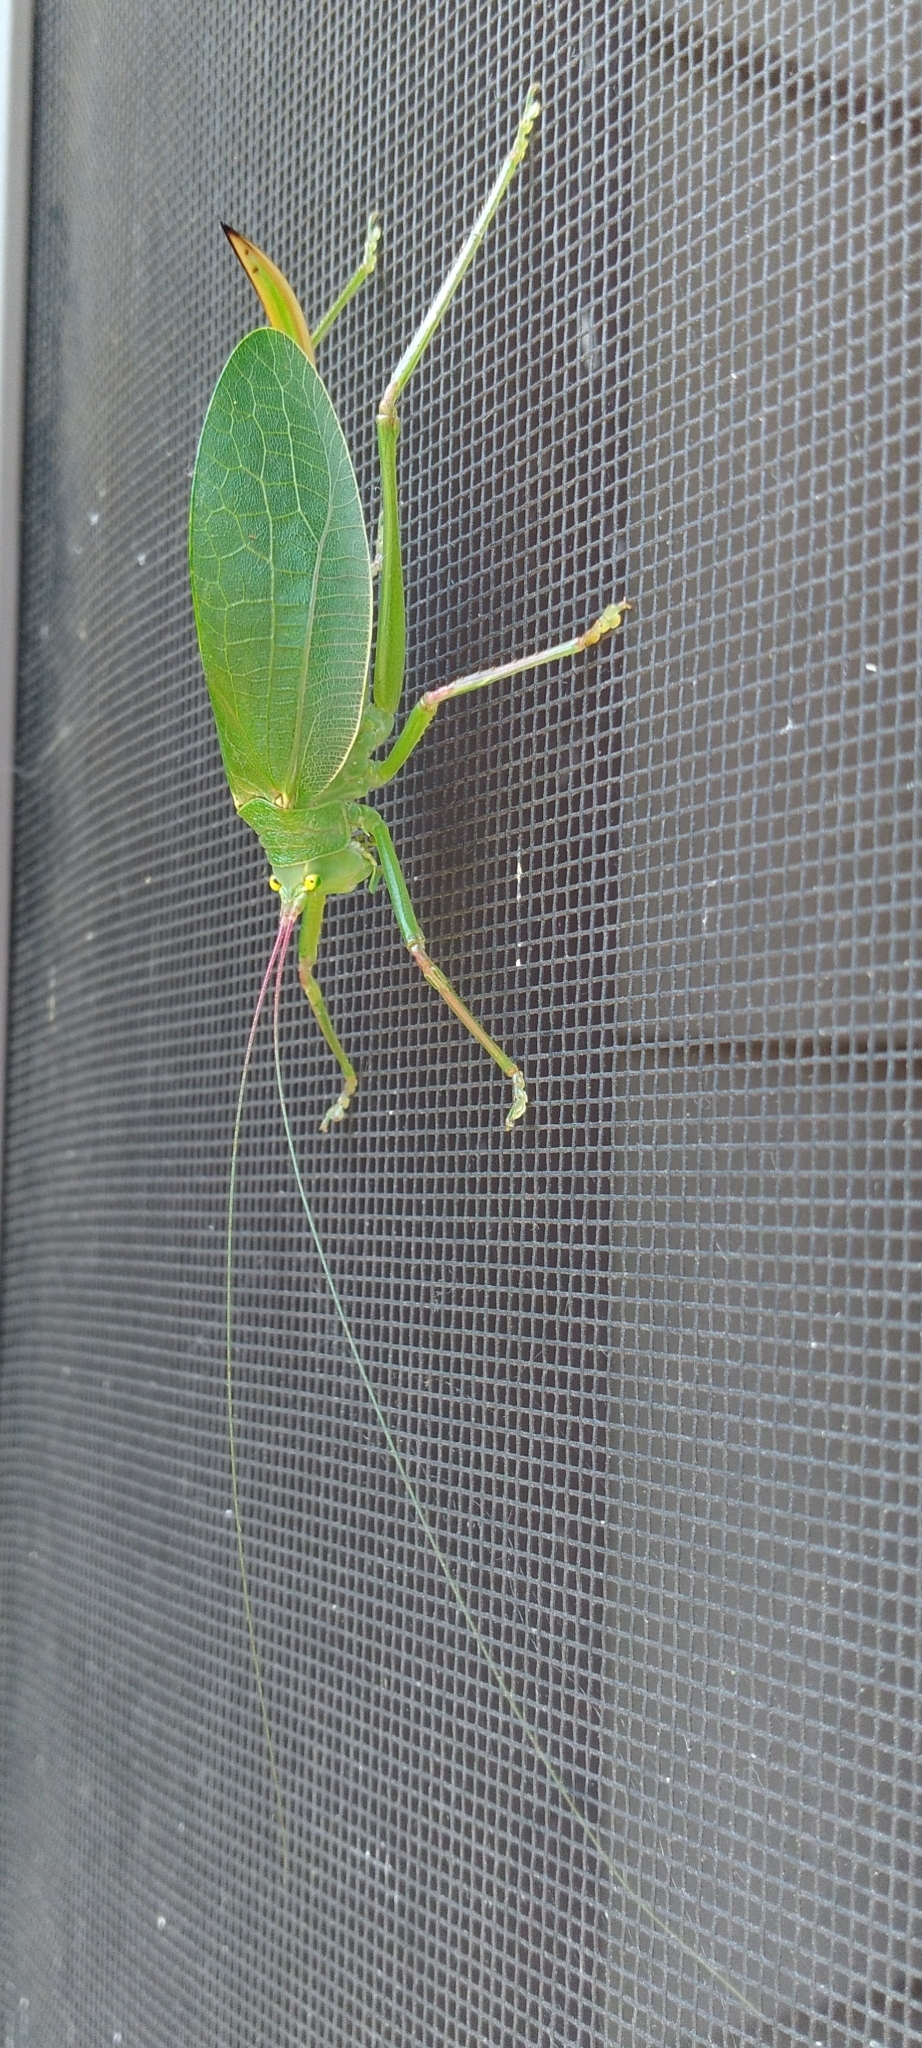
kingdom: Animalia
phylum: Arthropoda
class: Insecta
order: Orthoptera
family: Tettigoniidae
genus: Pterophylla
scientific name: Pterophylla camellifolia
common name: Common true katydid
